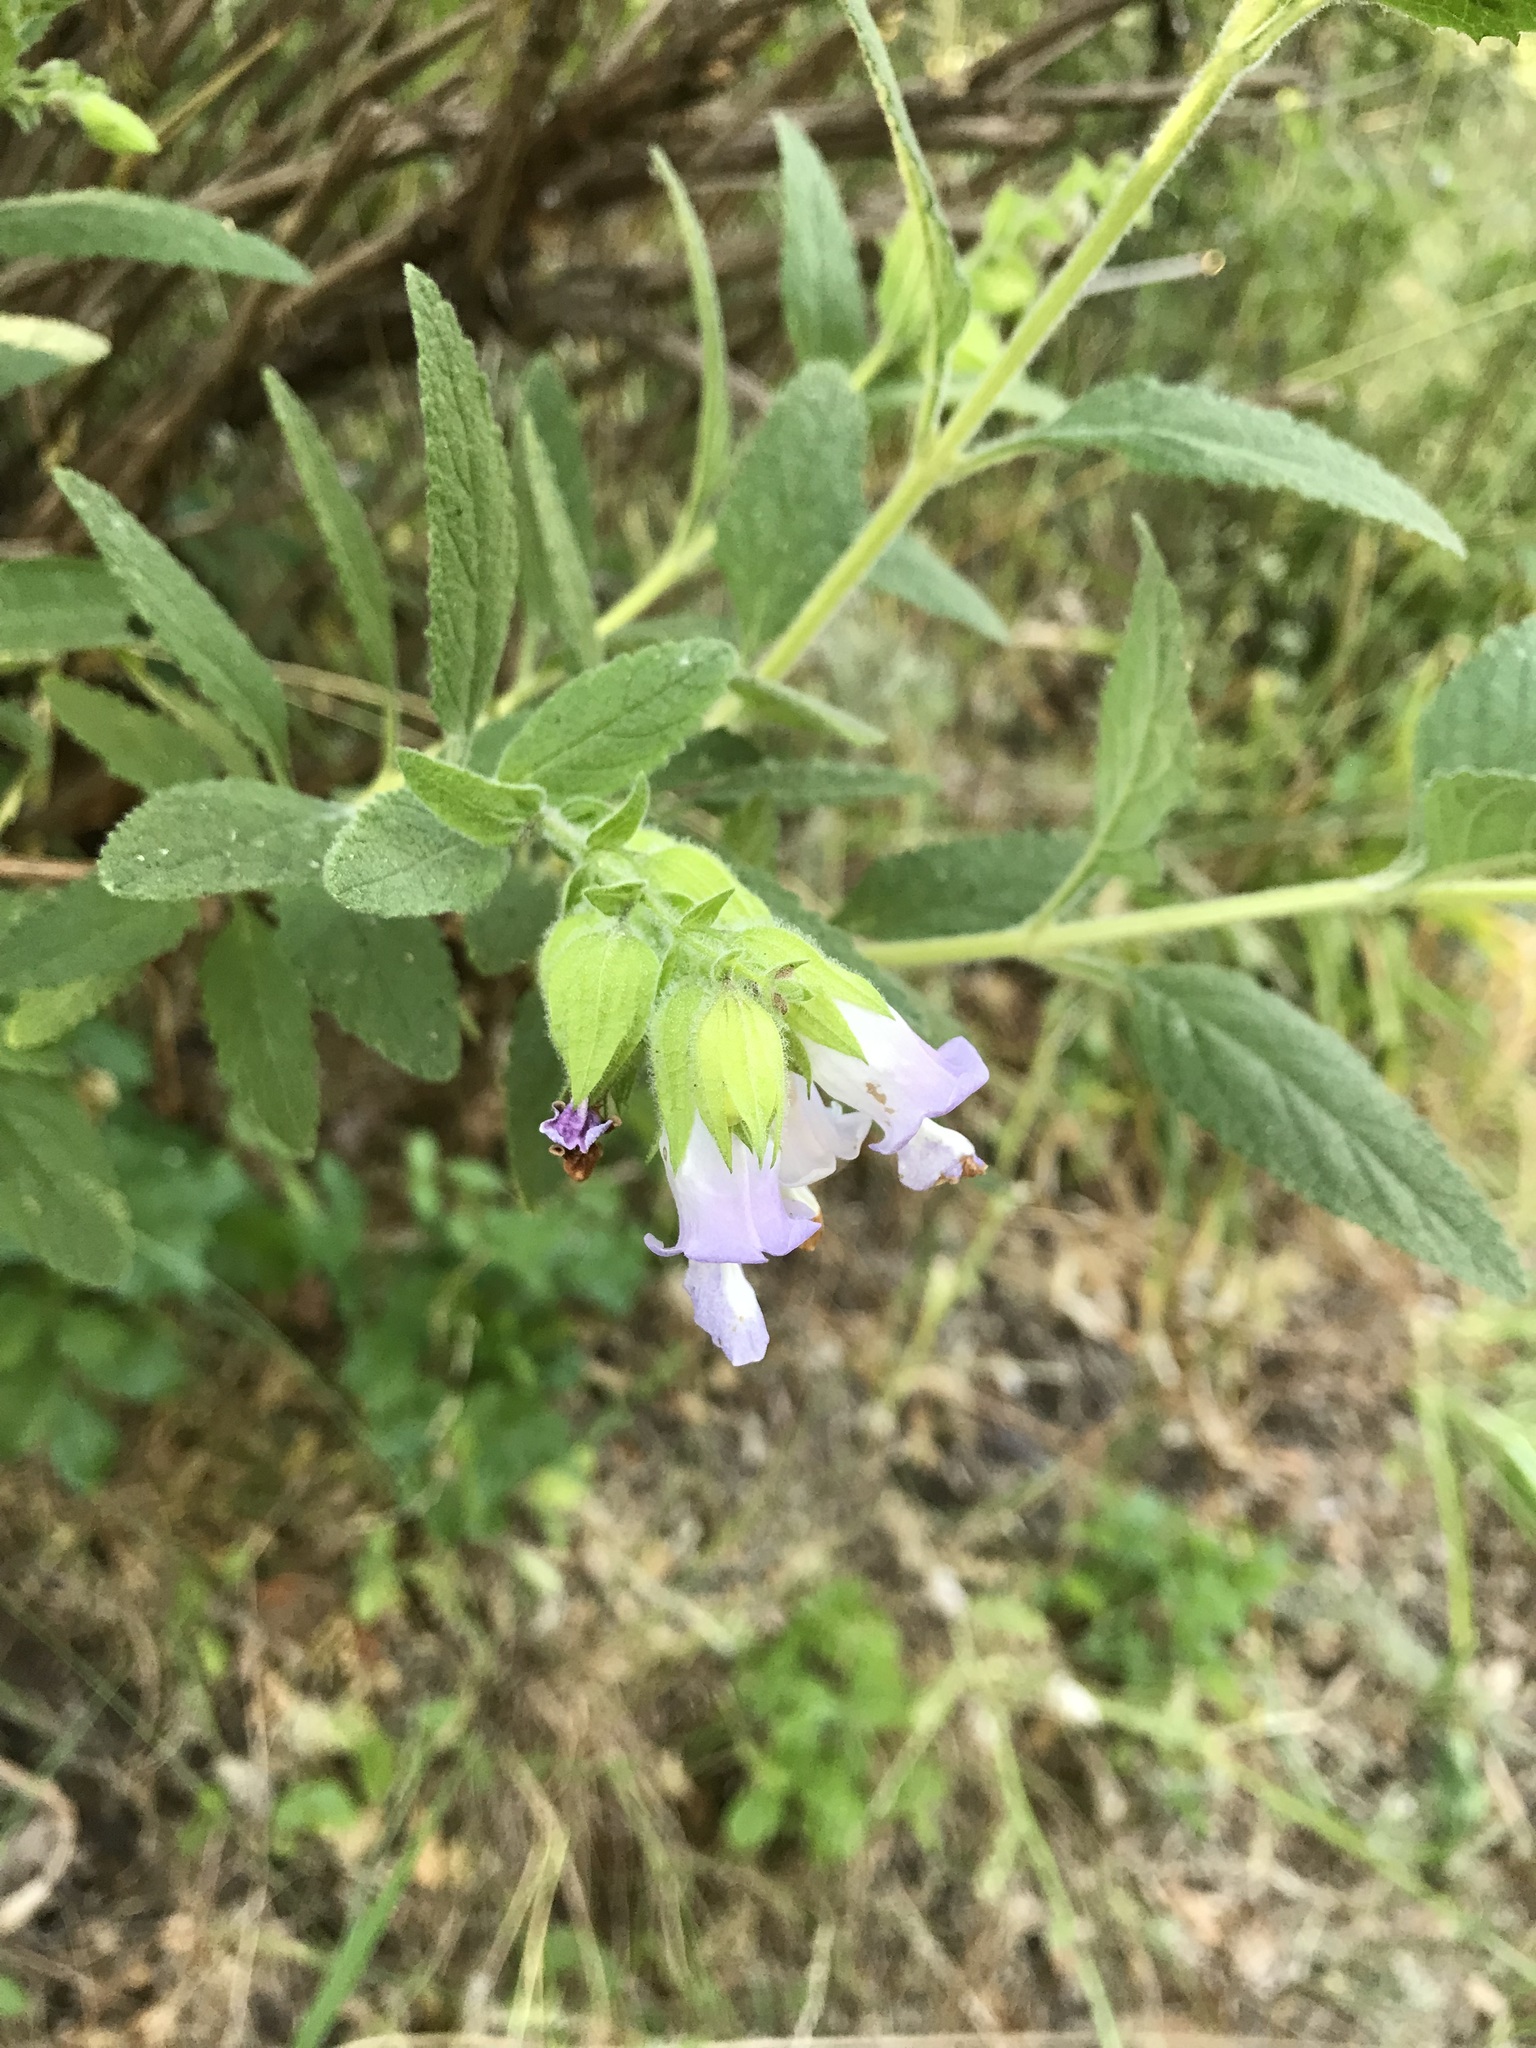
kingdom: Plantae
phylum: Tracheophyta
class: Magnoliopsida
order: Lamiales
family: Lamiaceae
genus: Lepechinia
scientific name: Lepechinia calycina
